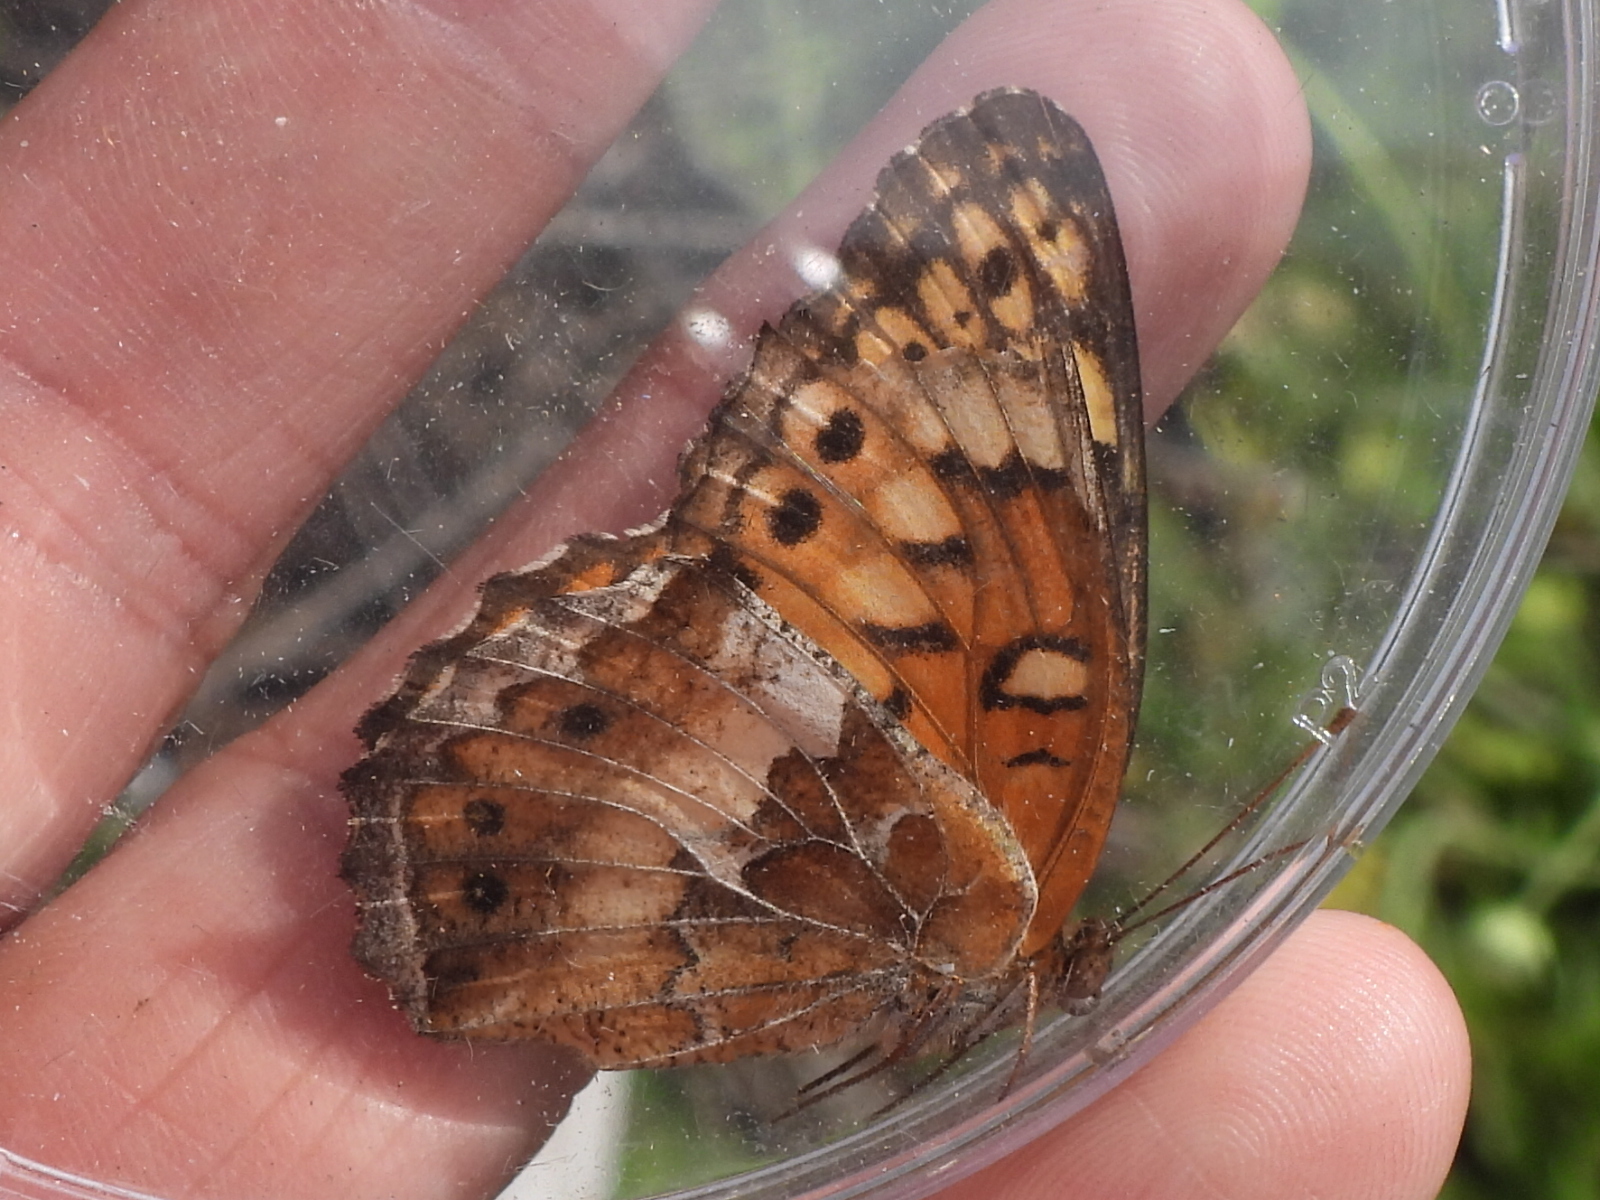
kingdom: Animalia
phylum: Arthropoda
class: Insecta
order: Lepidoptera
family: Nymphalidae
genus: Euptoieta
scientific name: Euptoieta claudia
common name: Variegated fritillary
